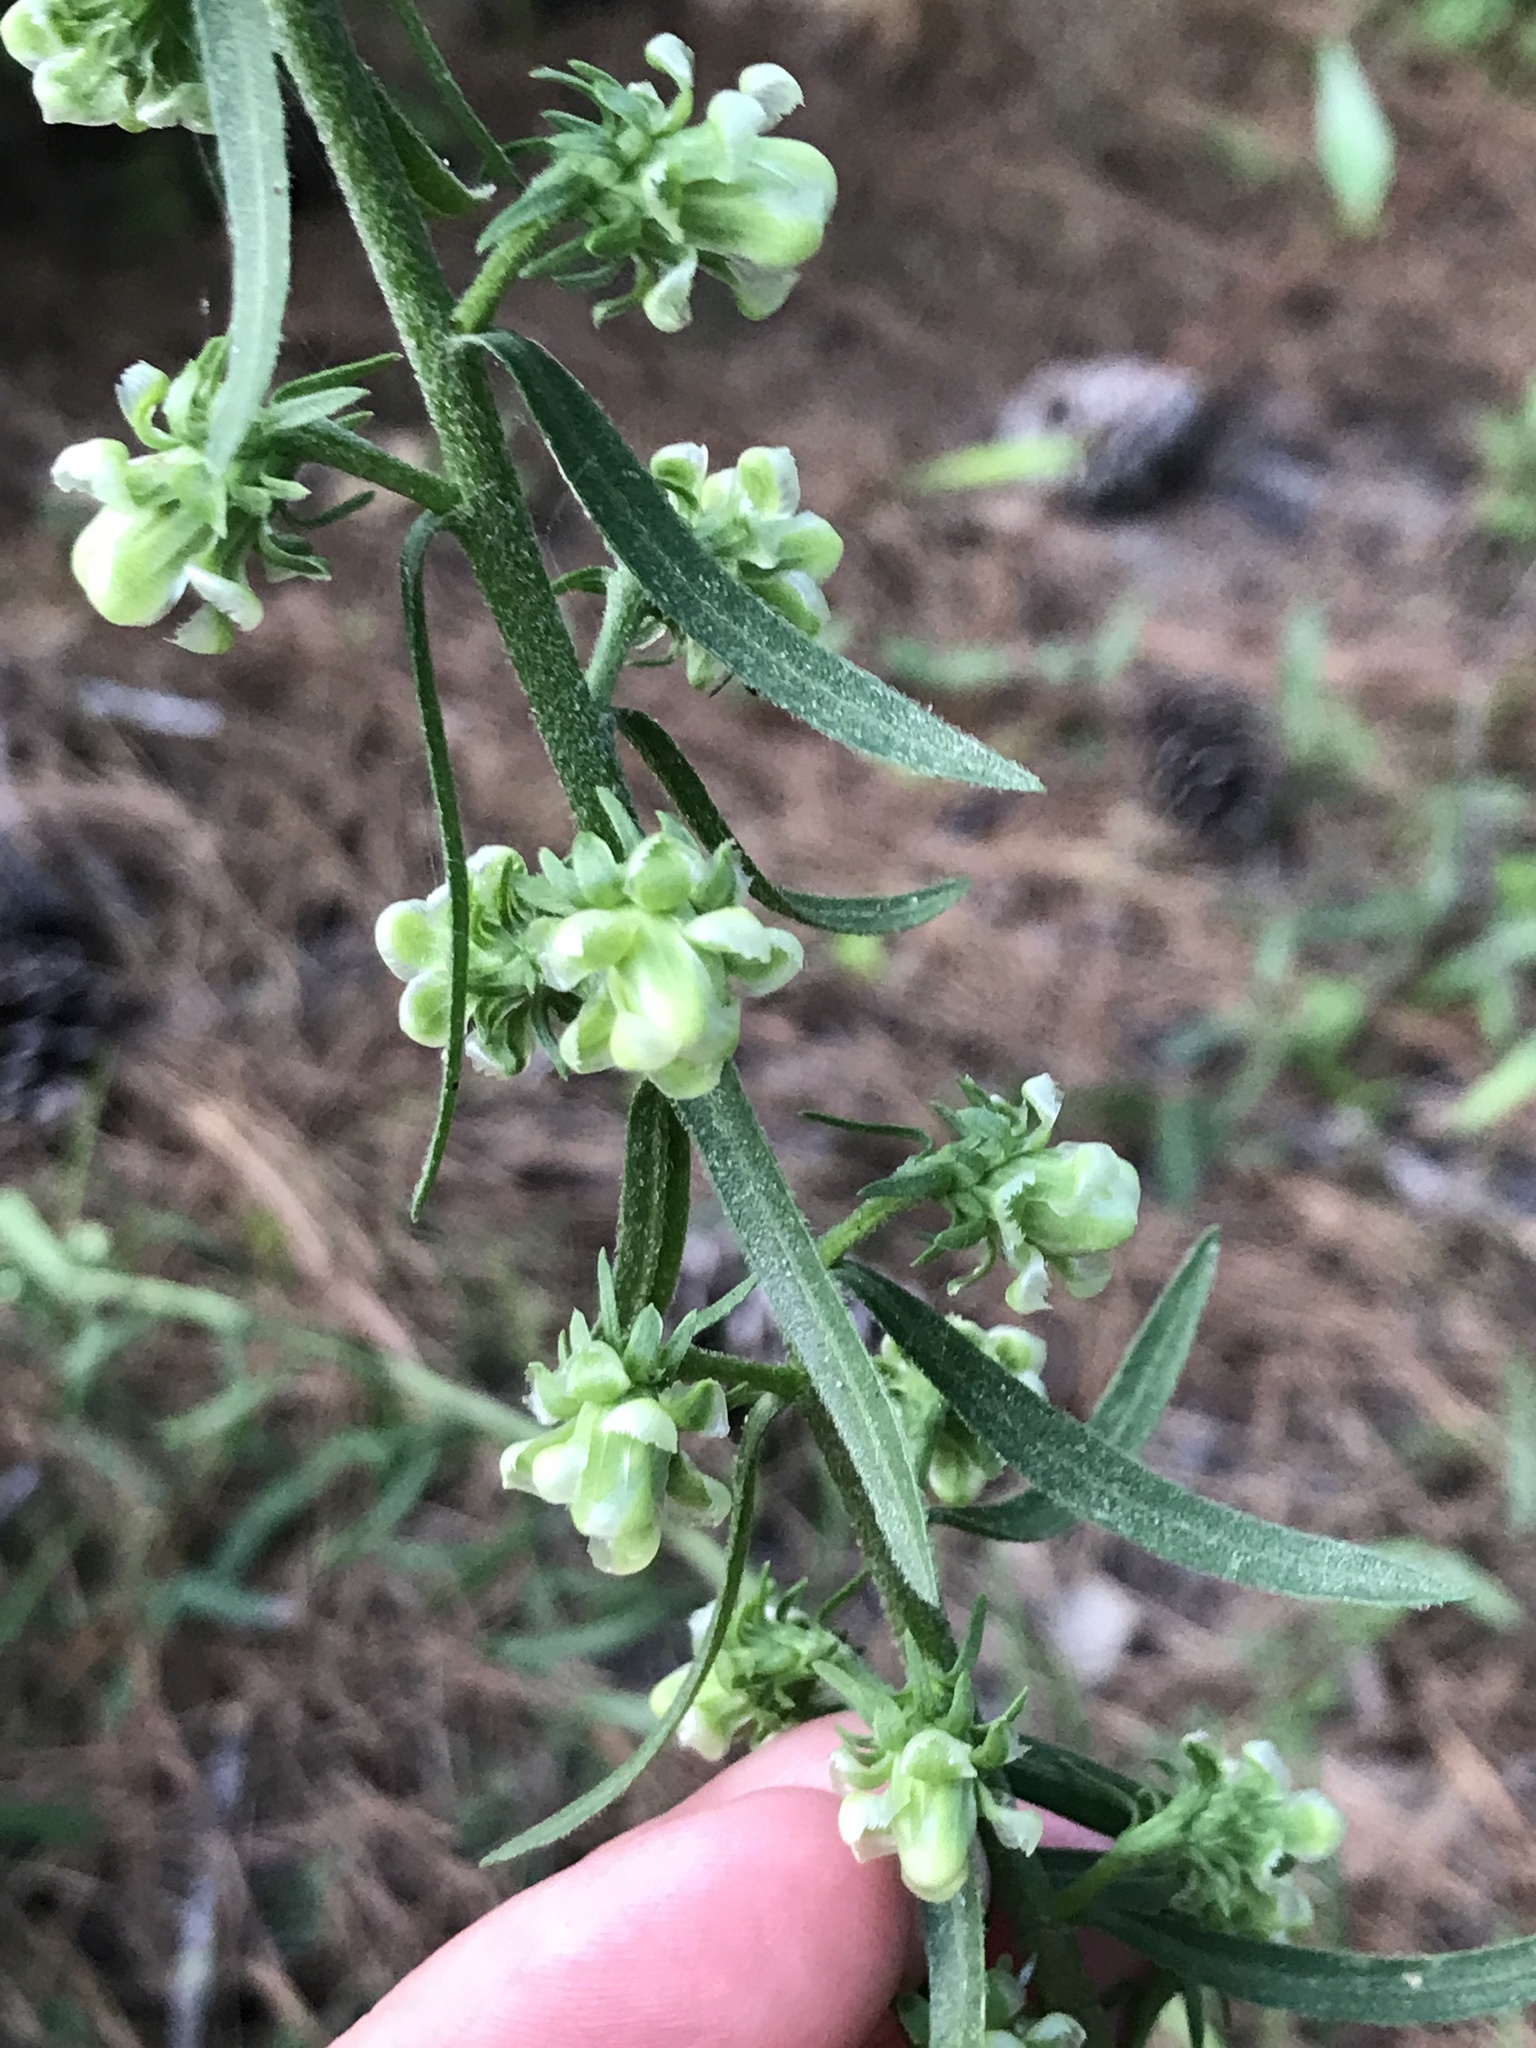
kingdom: Plantae
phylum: Tracheophyta
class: Magnoliopsida
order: Asterales
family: Asteraceae
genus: Liatris
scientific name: Liatris aspera
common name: Lacerate blazing-star
